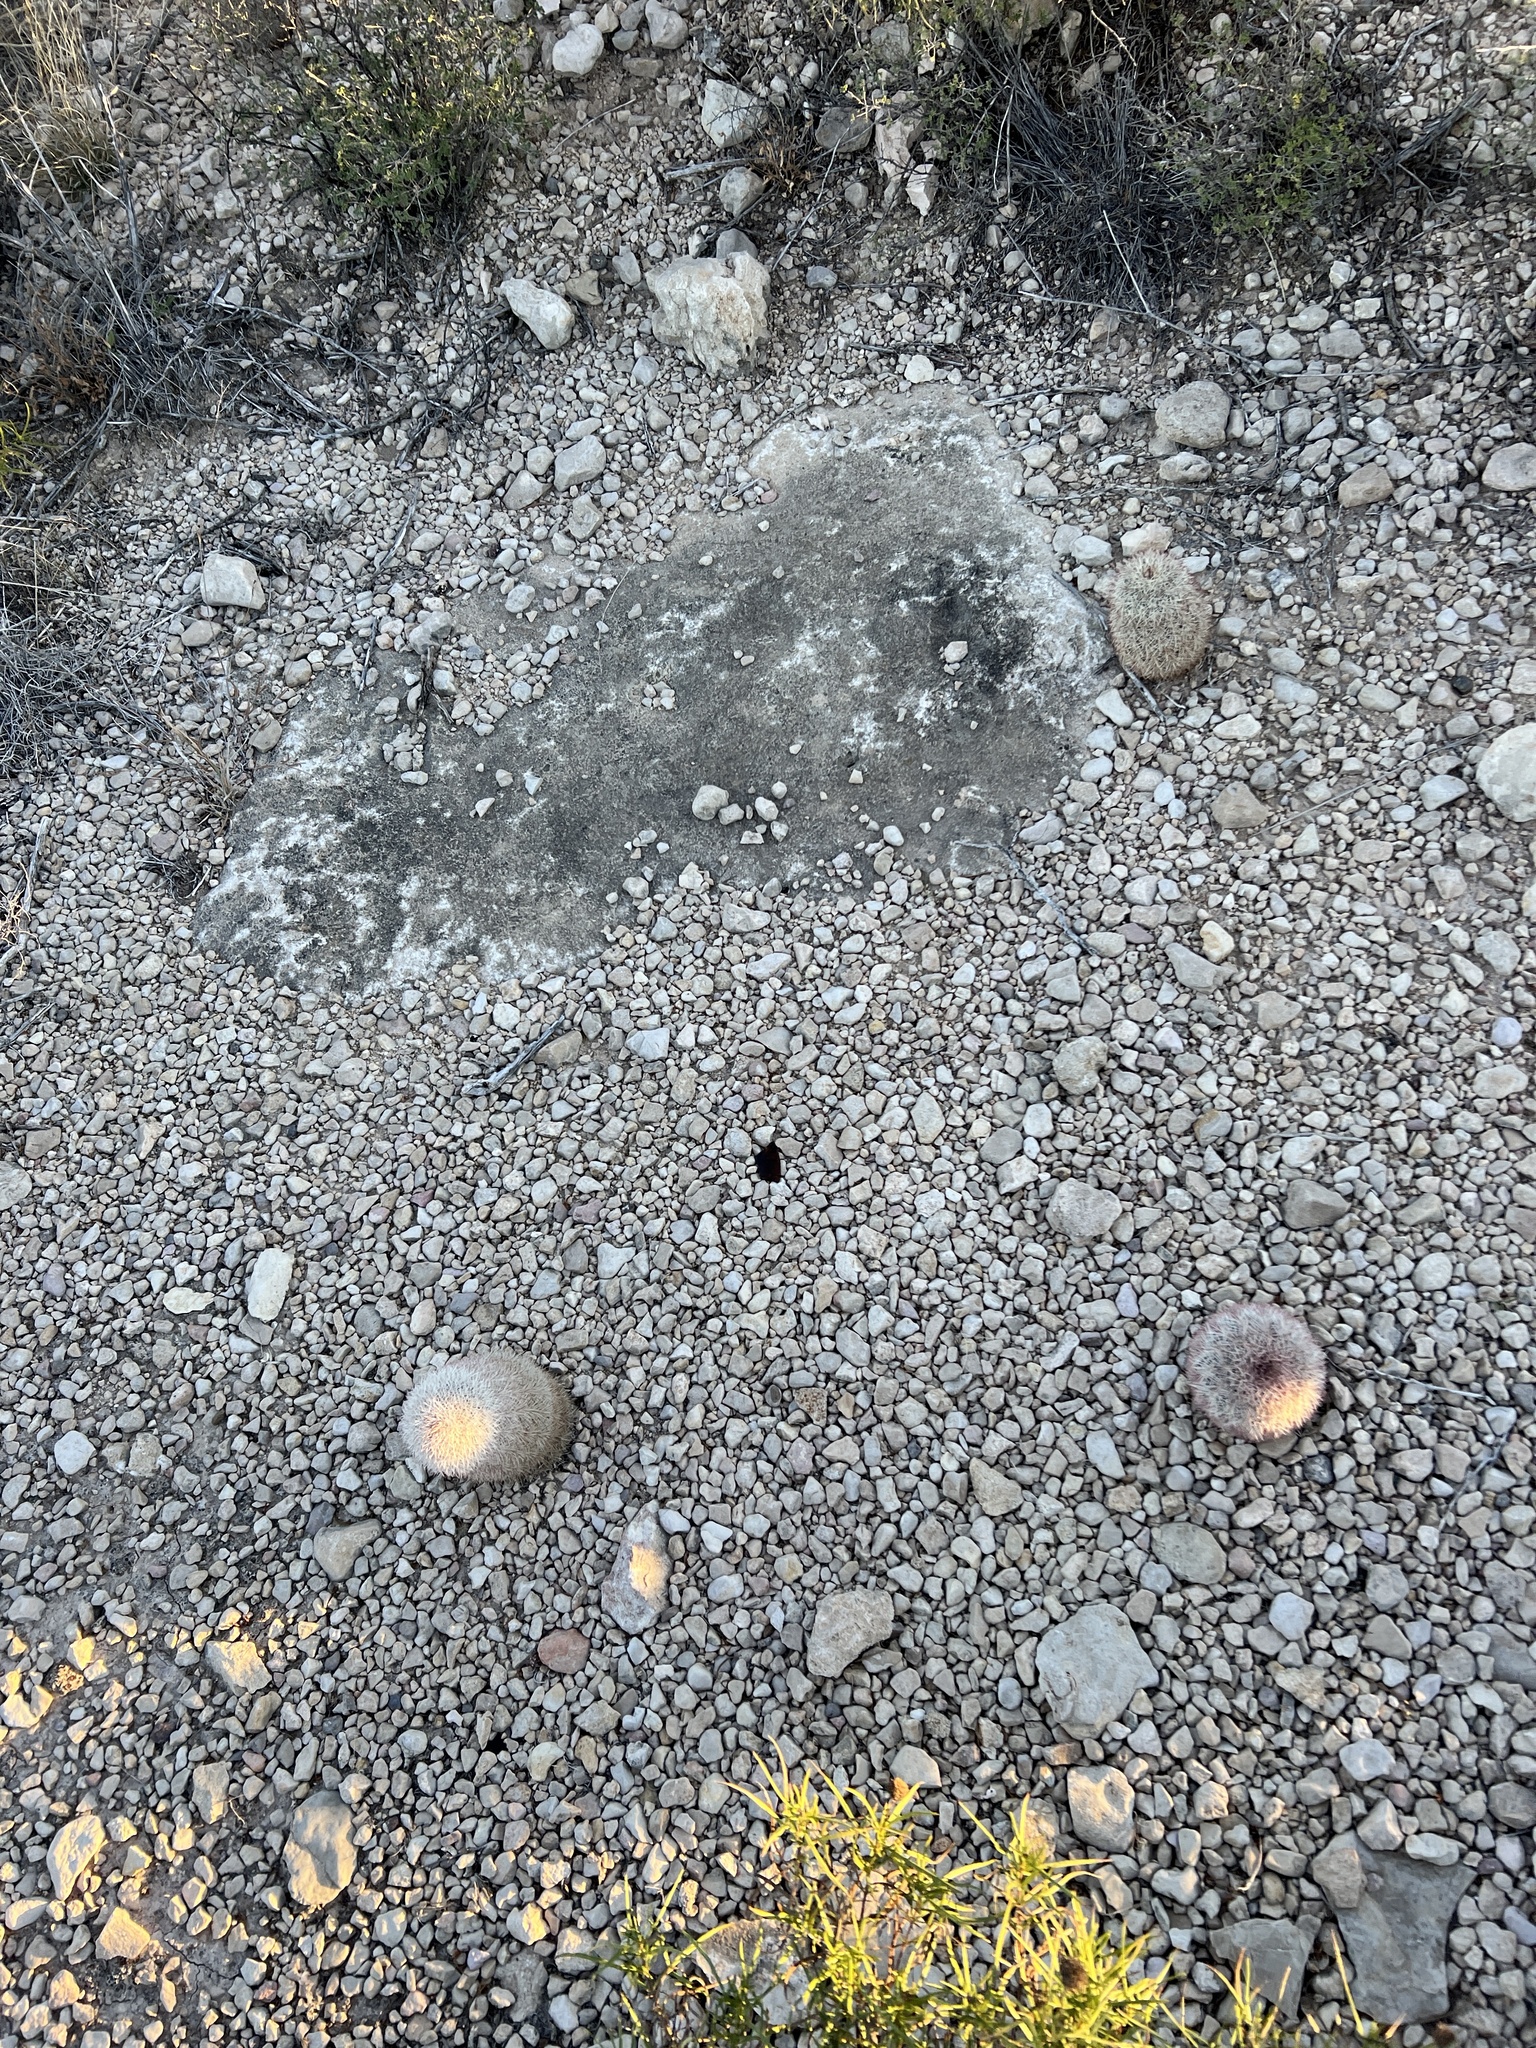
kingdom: Plantae
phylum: Tracheophyta
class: Magnoliopsida
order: Caryophyllales
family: Cactaceae
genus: Echinocereus
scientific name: Echinocereus dasyacanthus
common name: Spiny hedgehog cactus
